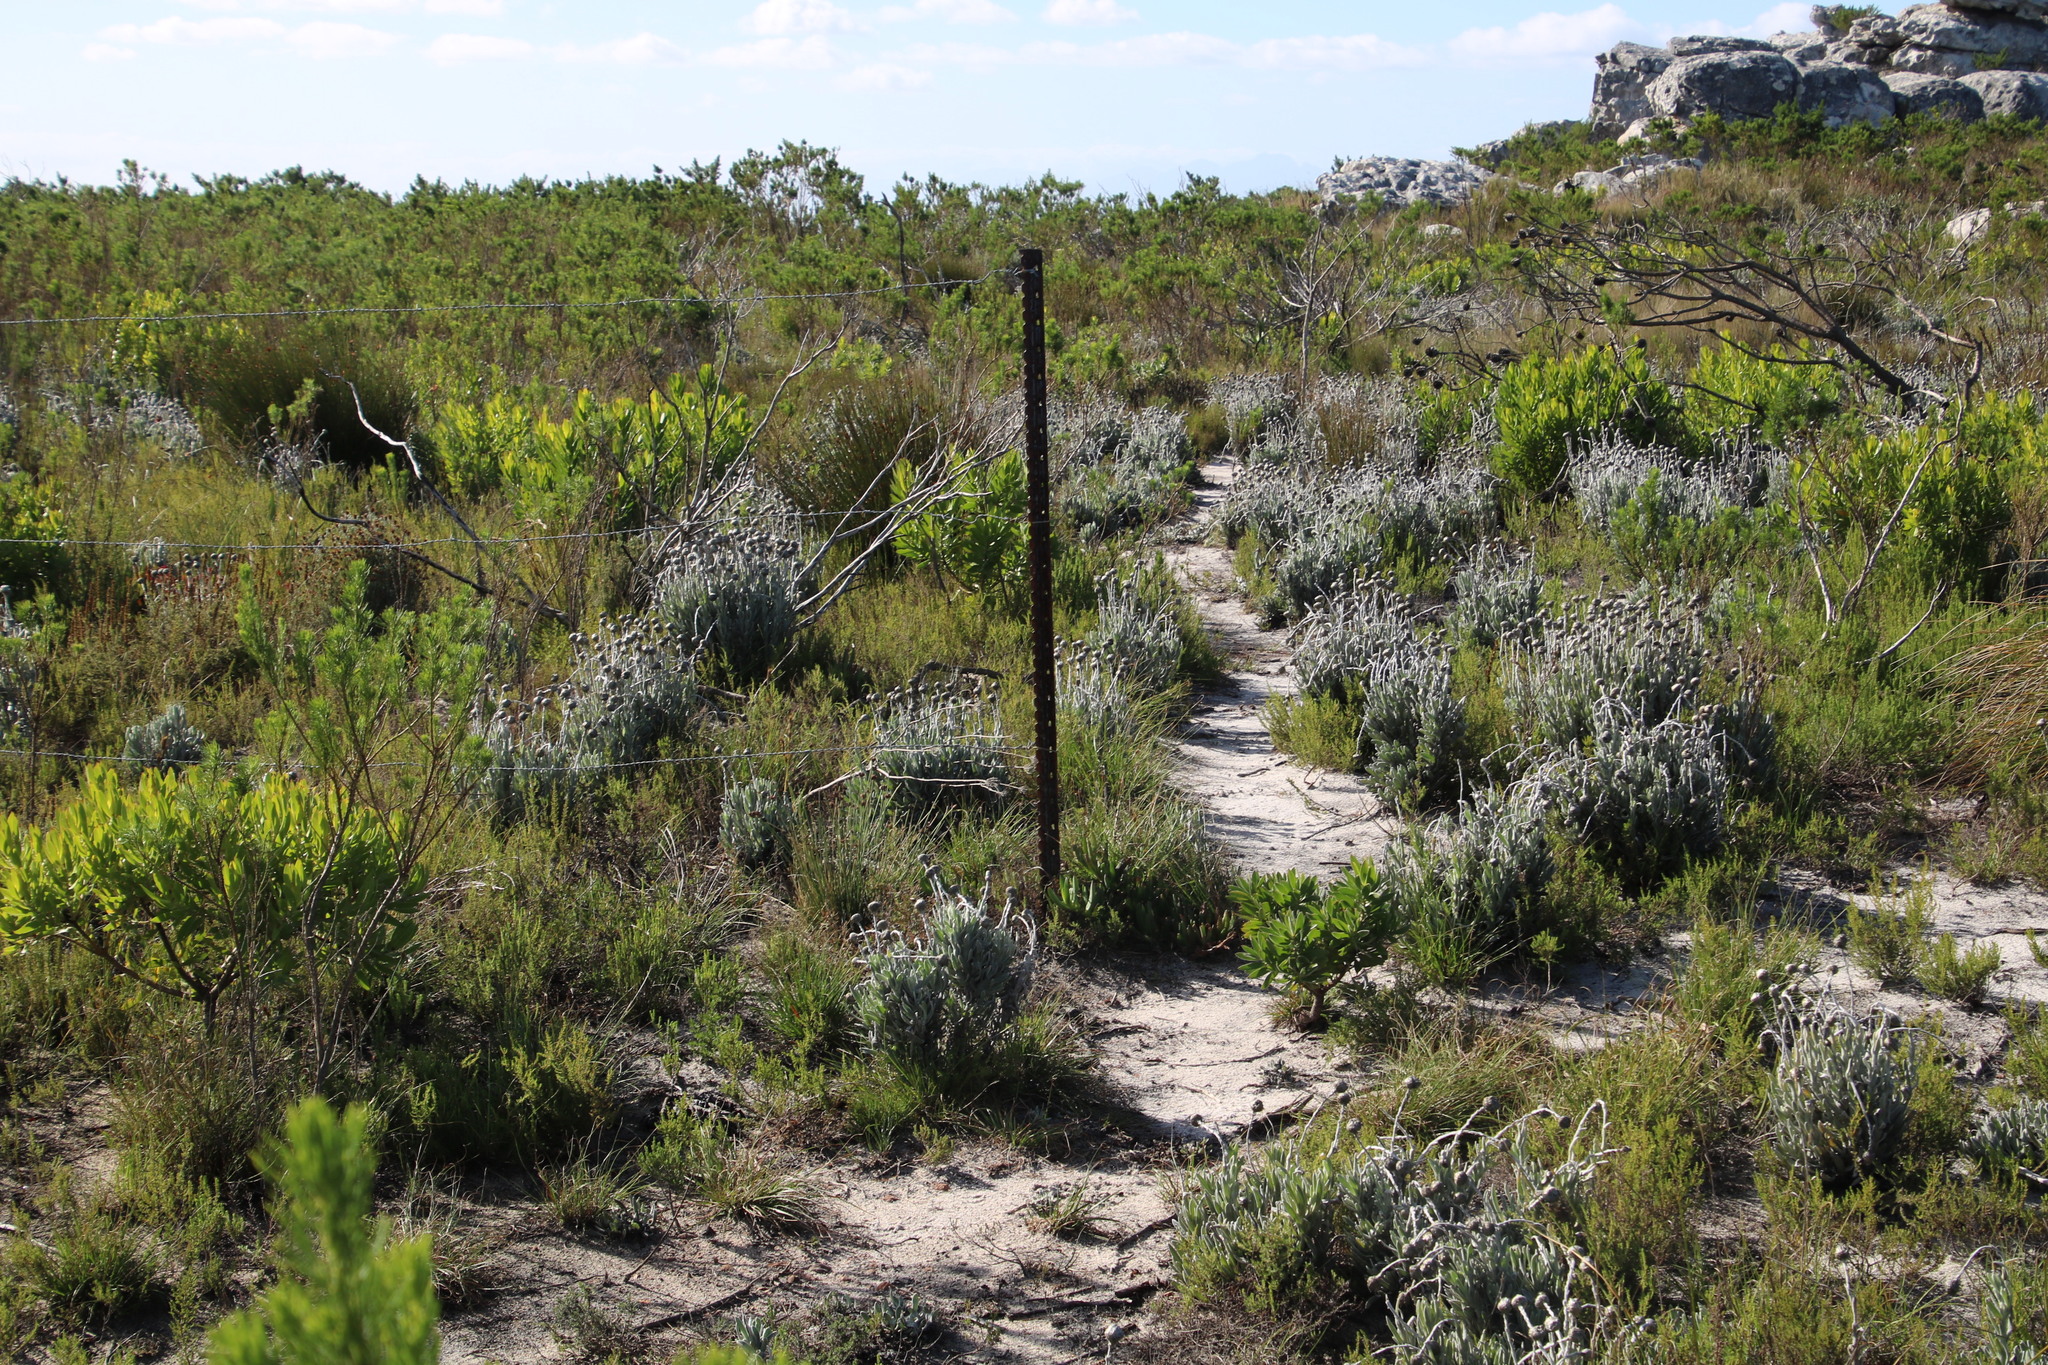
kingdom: Plantae
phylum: Tracheophyta
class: Magnoliopsida
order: Lamiales
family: Plantaginaceae
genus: Plantago
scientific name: Plantago lanceolata
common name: Ribwort plantain
